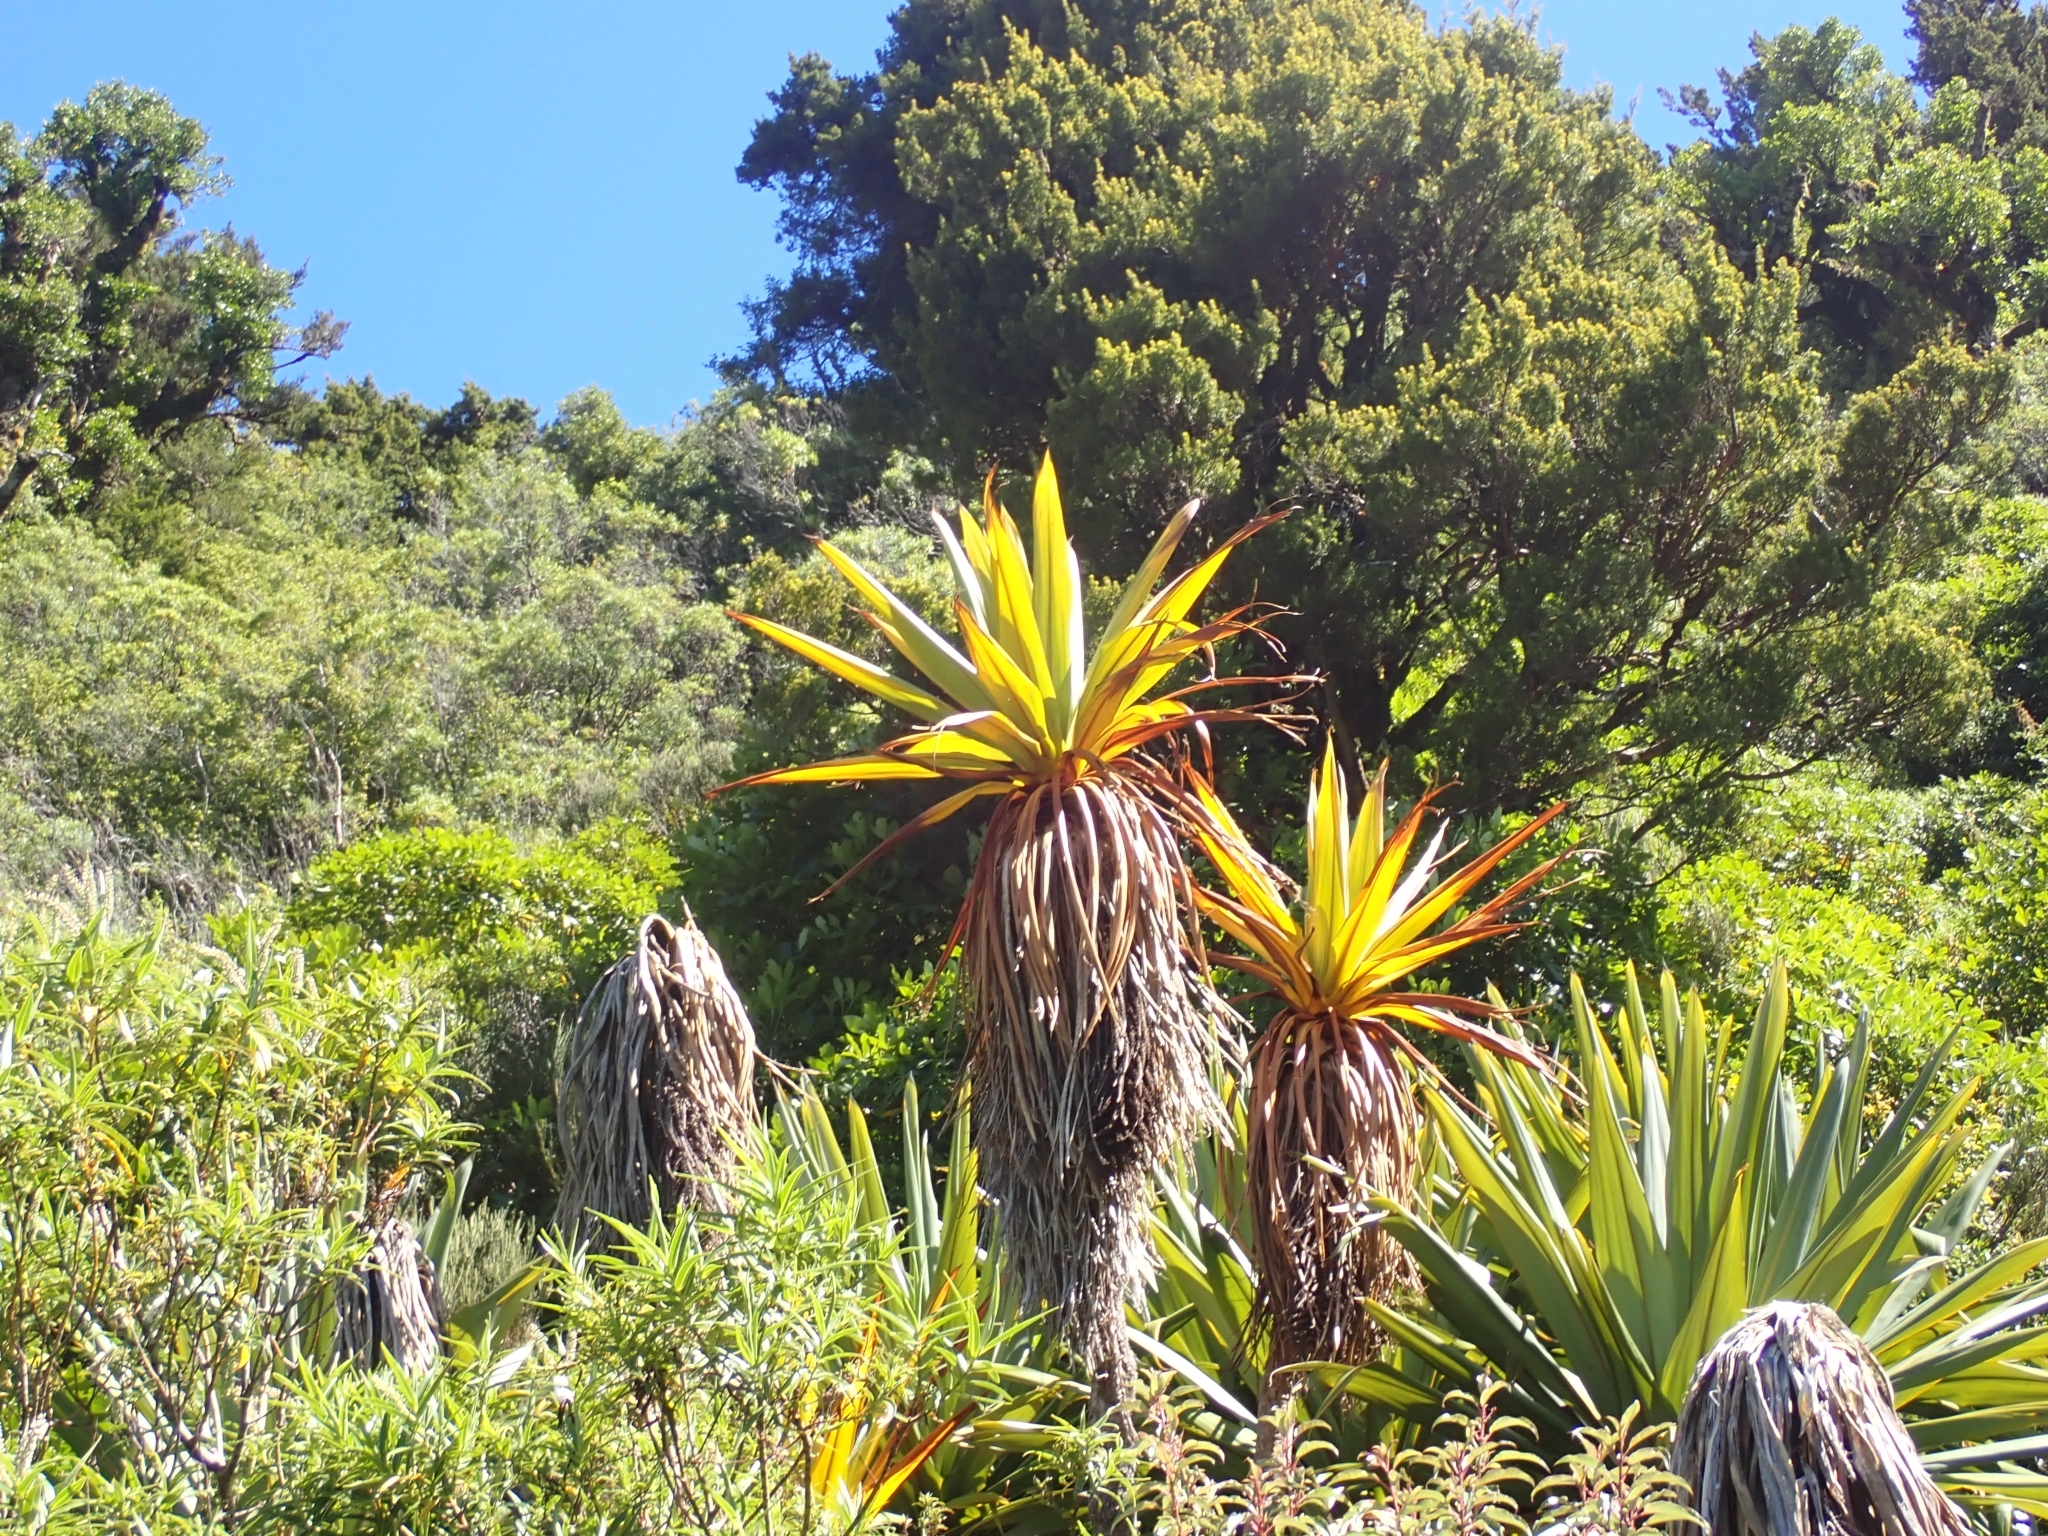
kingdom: Plantae
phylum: Tracheophyta
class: Liliopsida
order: Asparagales
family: Asparagaceae
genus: Cordyline
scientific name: Cordyline indivisa
